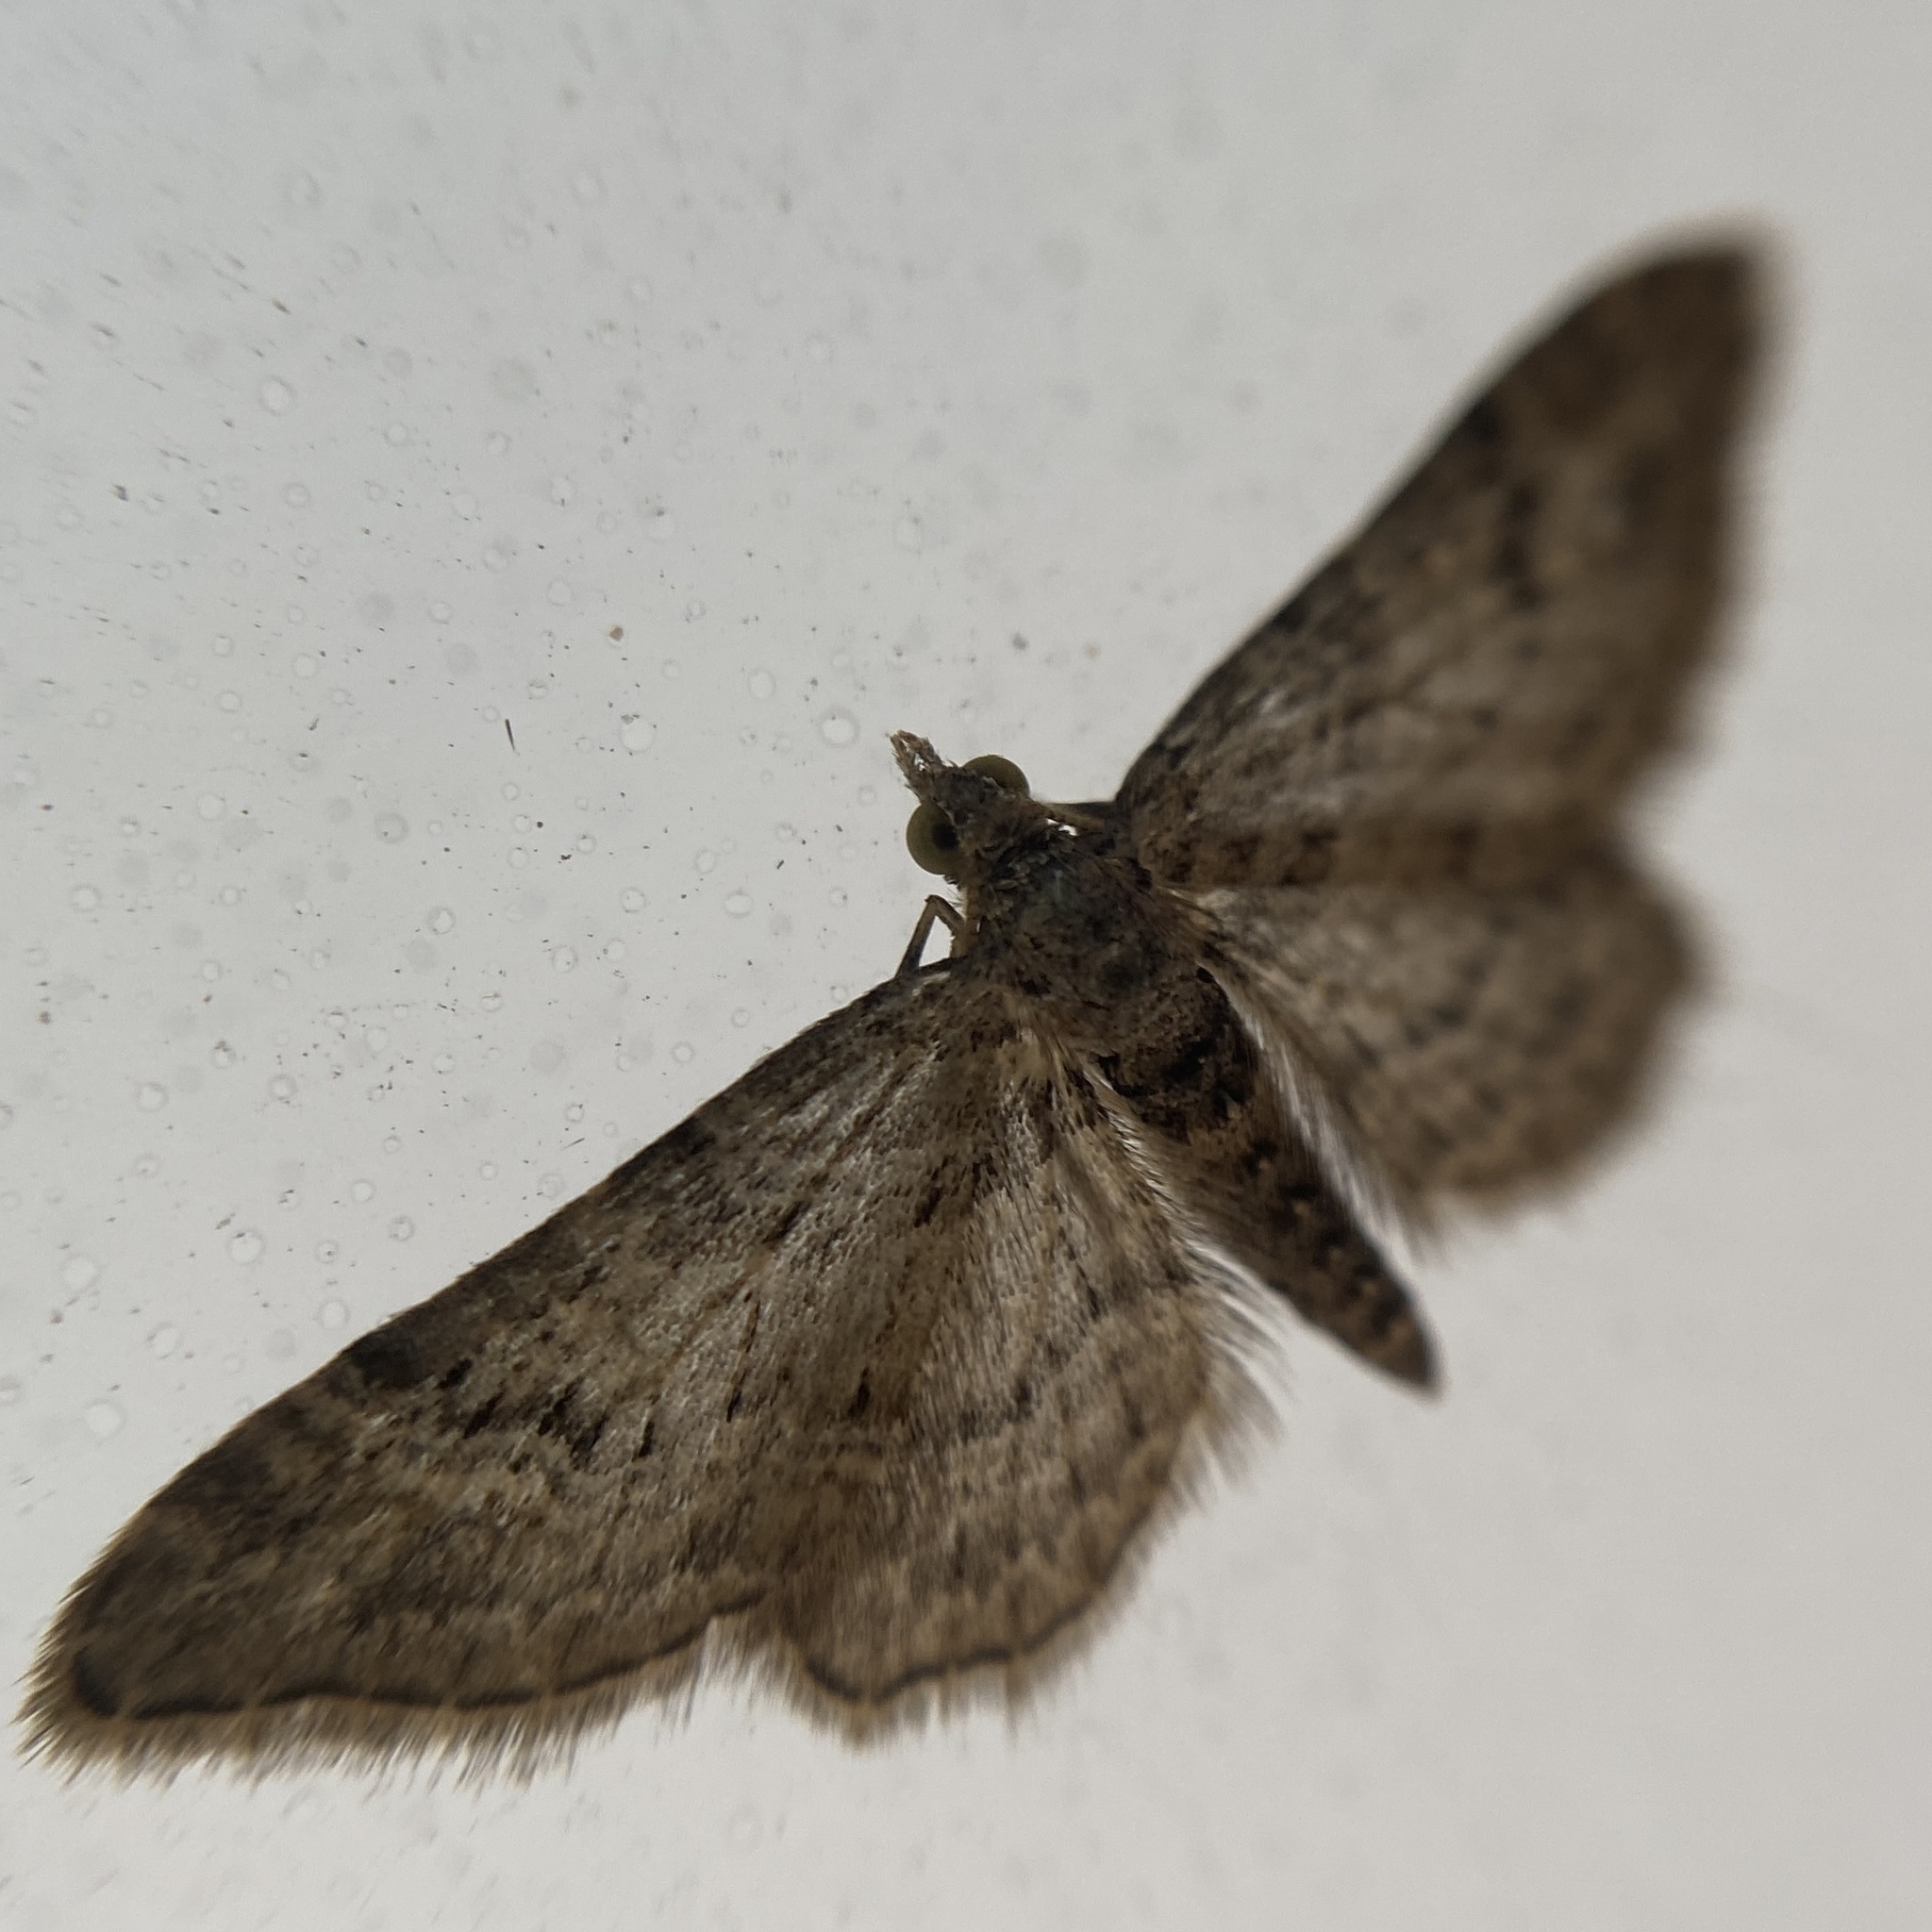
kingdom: Animalia
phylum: Arthropoda
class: Insecta
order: Lepidoptera
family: Geometridae
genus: Gymnoscelis
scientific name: Gymnoscelis rufifasciata
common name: Double-striped pug
